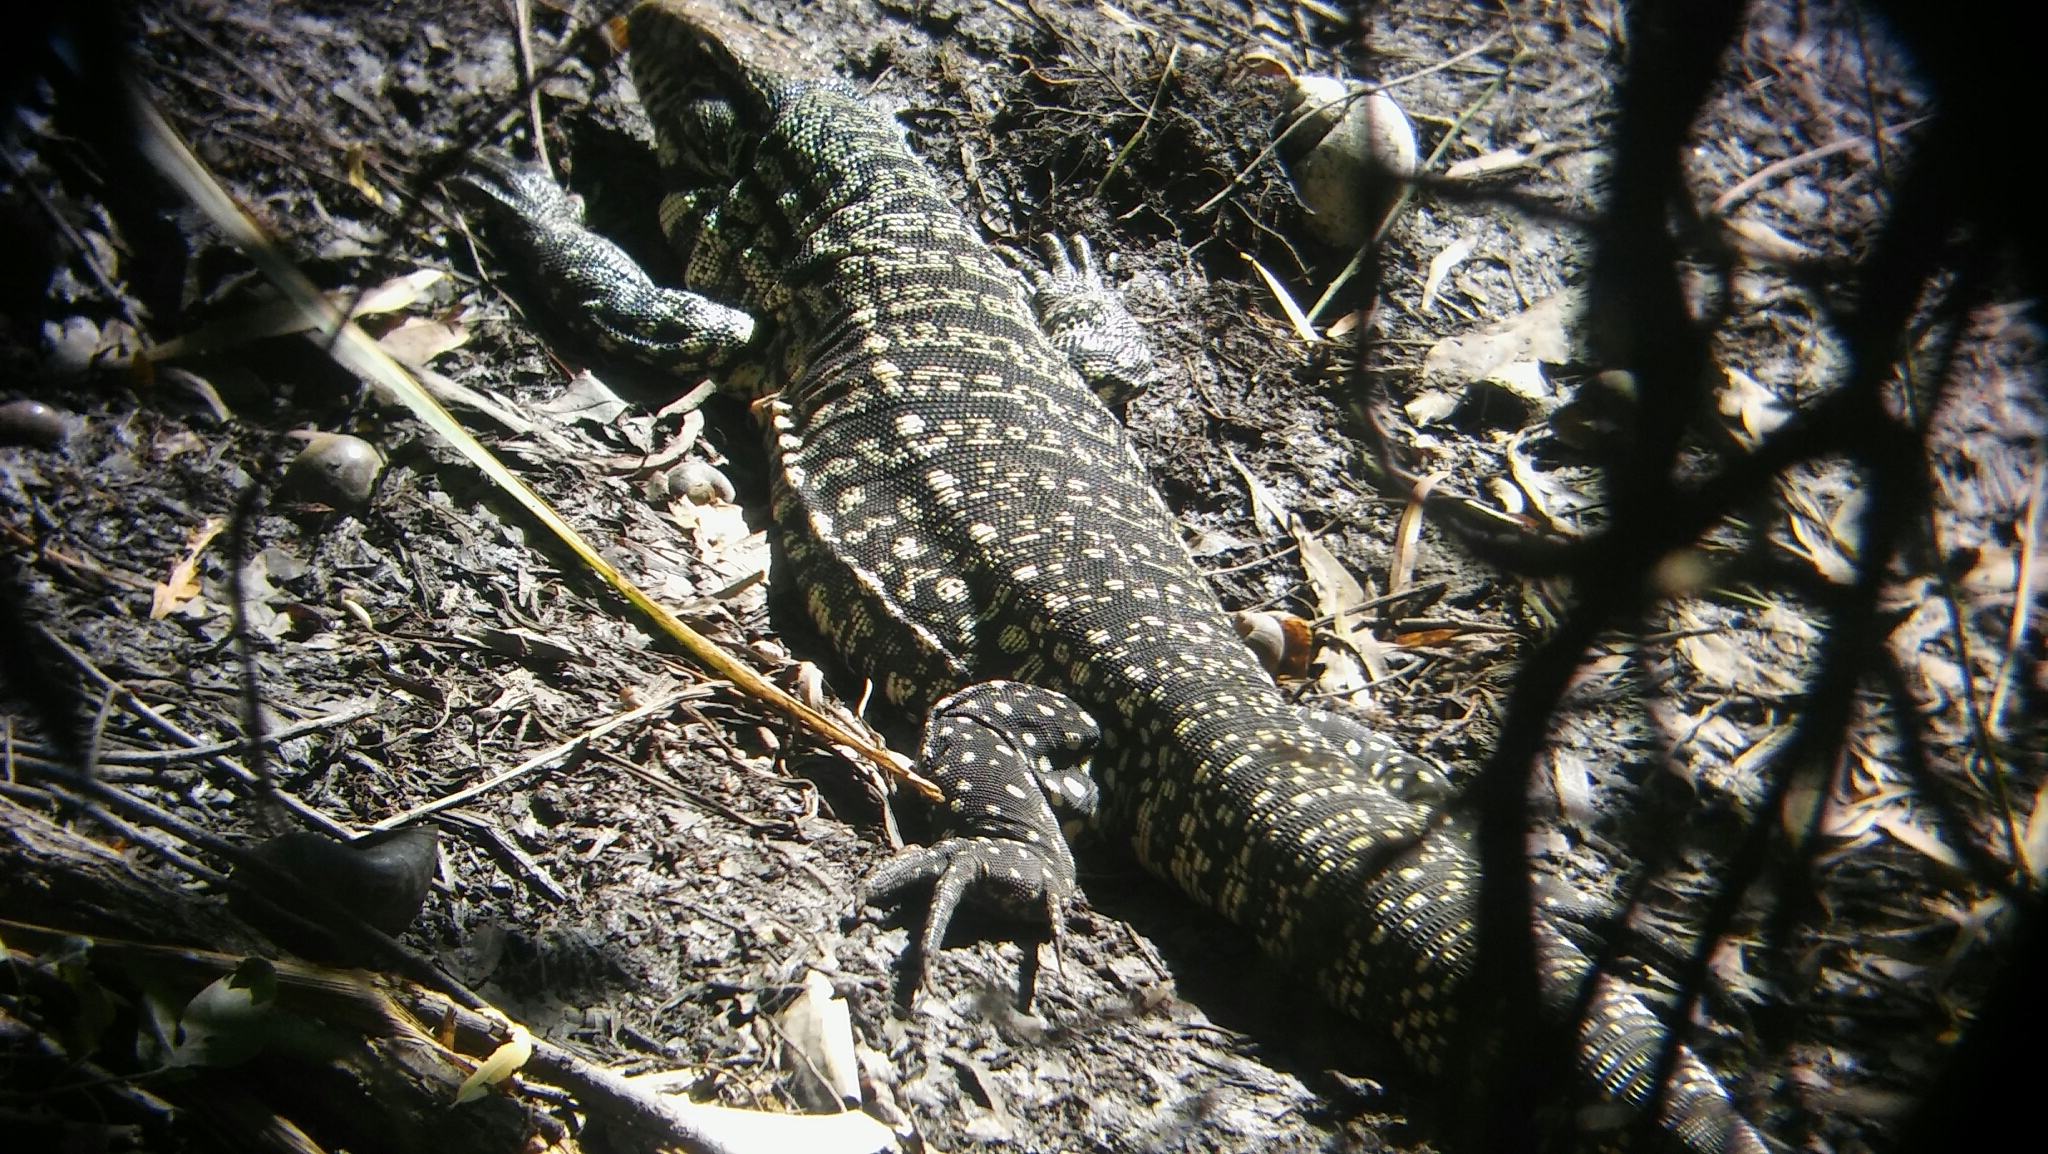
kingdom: Animalia
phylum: Chordata
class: Squamata
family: Teiidae
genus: Salvator
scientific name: Salvator merianae
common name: Argentine black and white tegu
